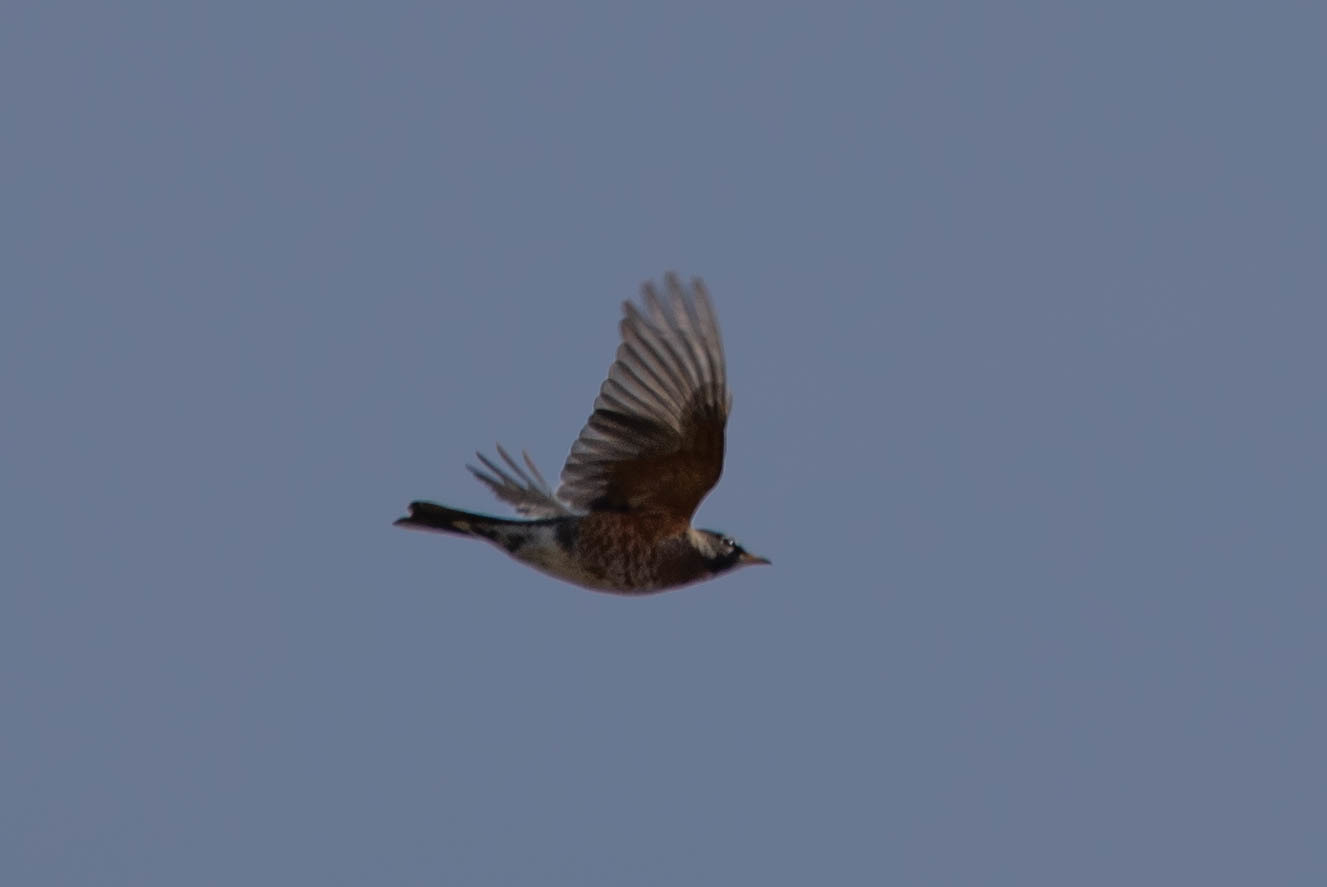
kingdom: Animalia
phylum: Chordata
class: Aves
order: Passeriformes
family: Turdidae
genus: Turdus
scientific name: Turdus migratorius
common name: American robin
